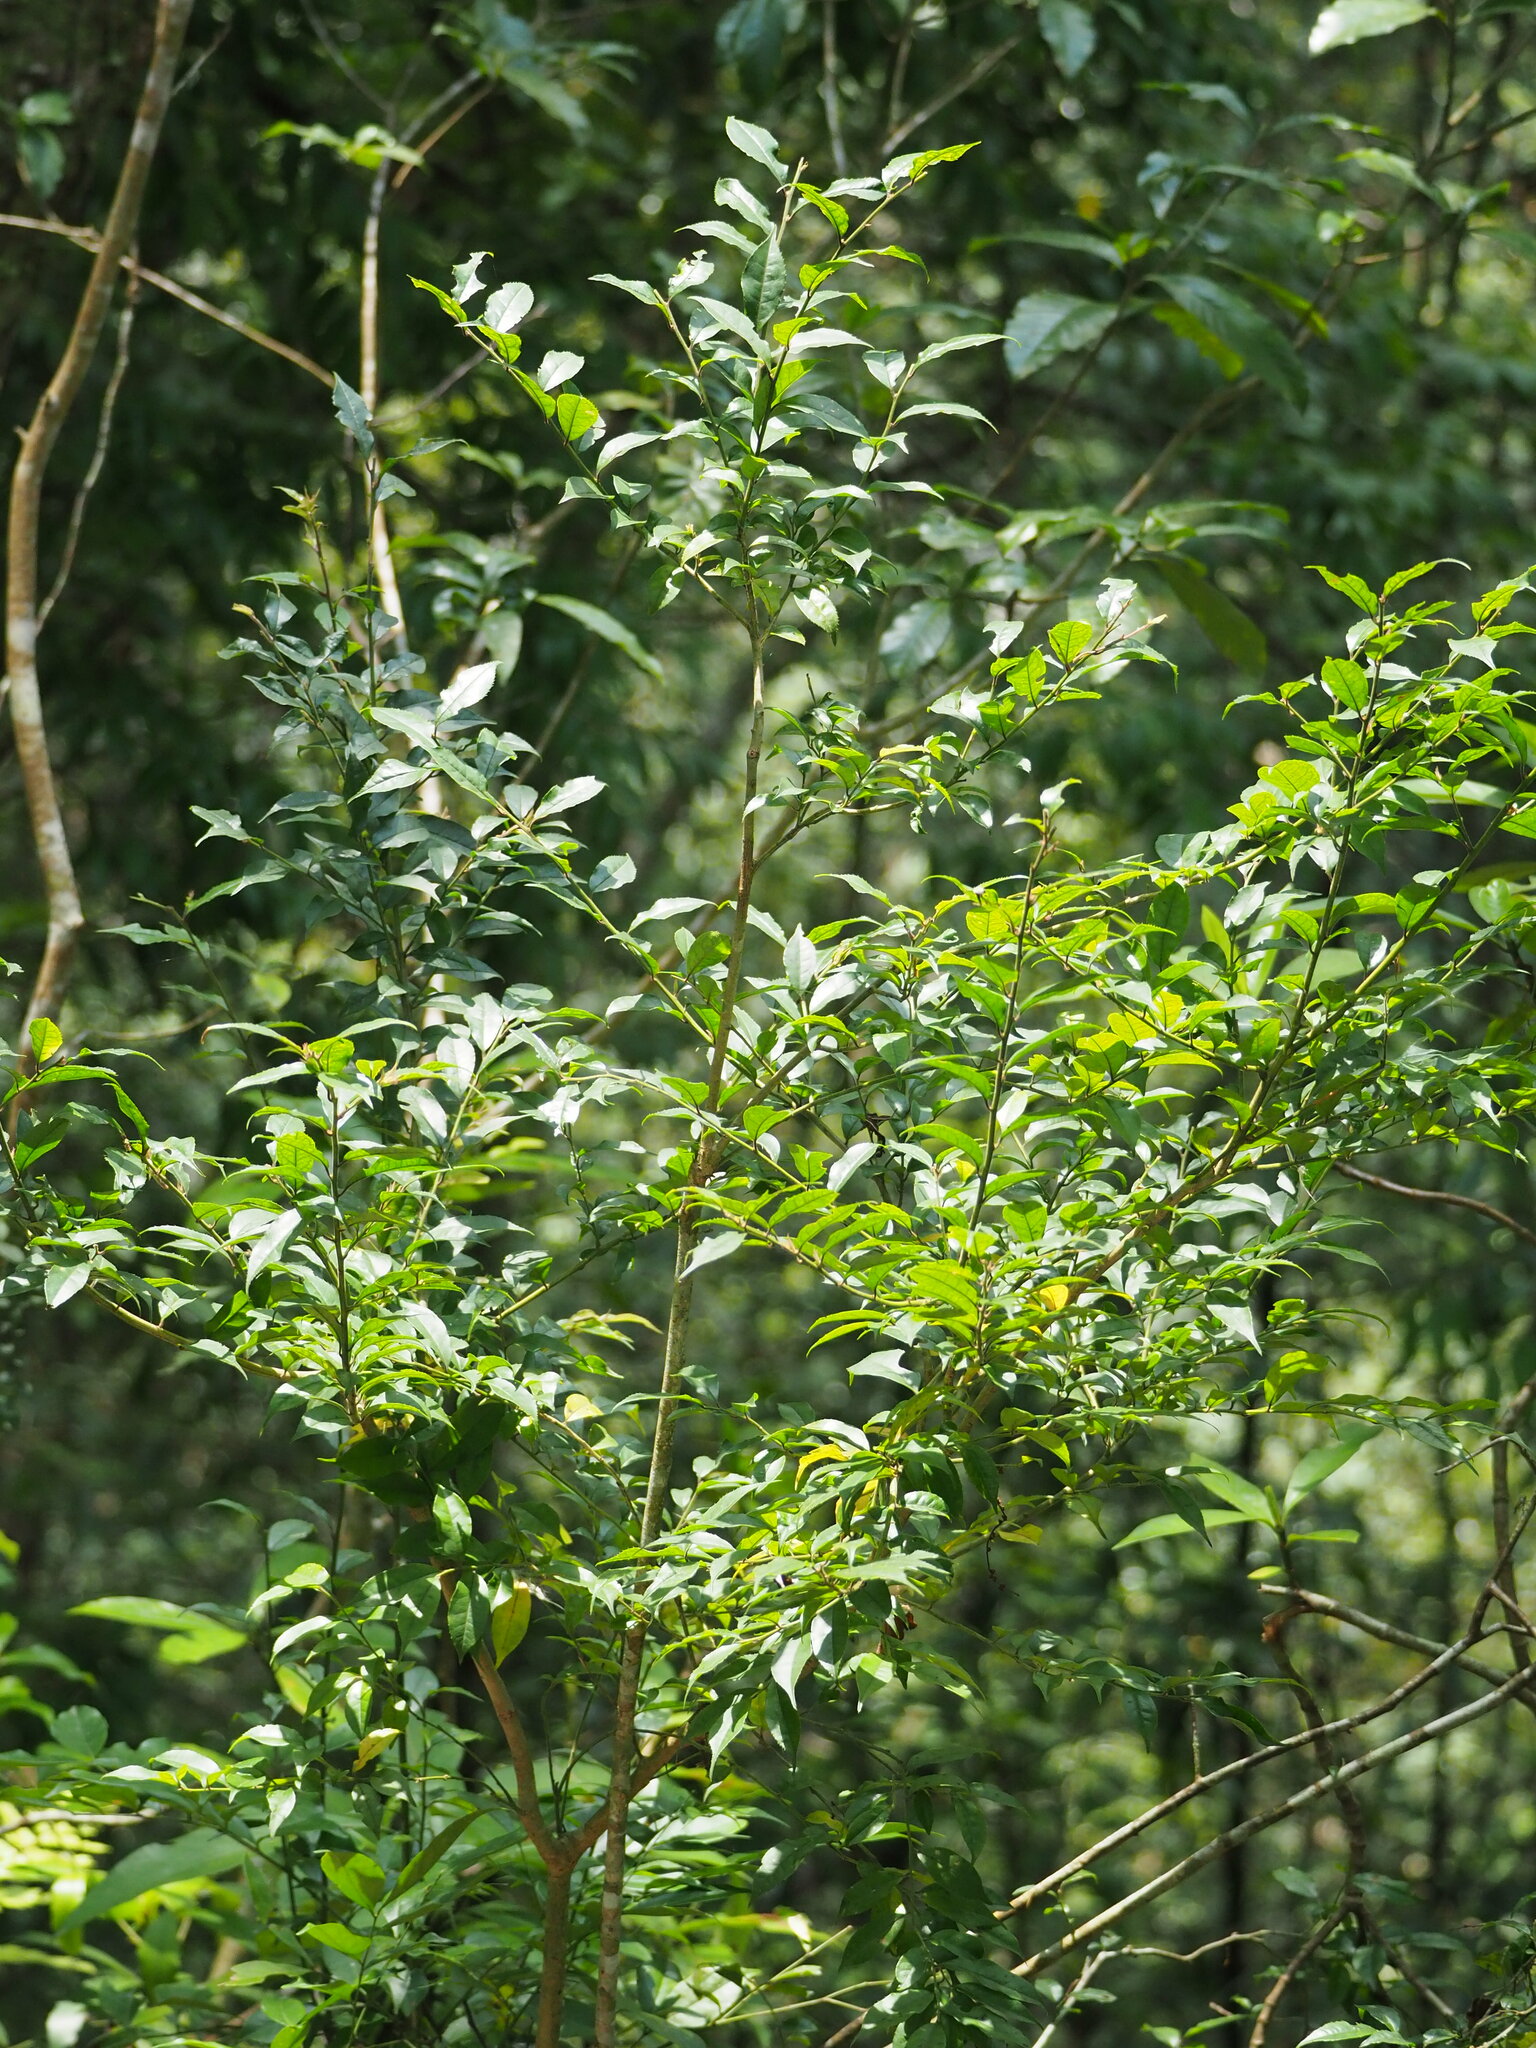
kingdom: Plantae
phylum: Tracheophyta
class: Magnoliopsida
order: Aquifoliales
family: Aquifoliaceae
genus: Ilex
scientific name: Ilex pubescens
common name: Pubescent holly
